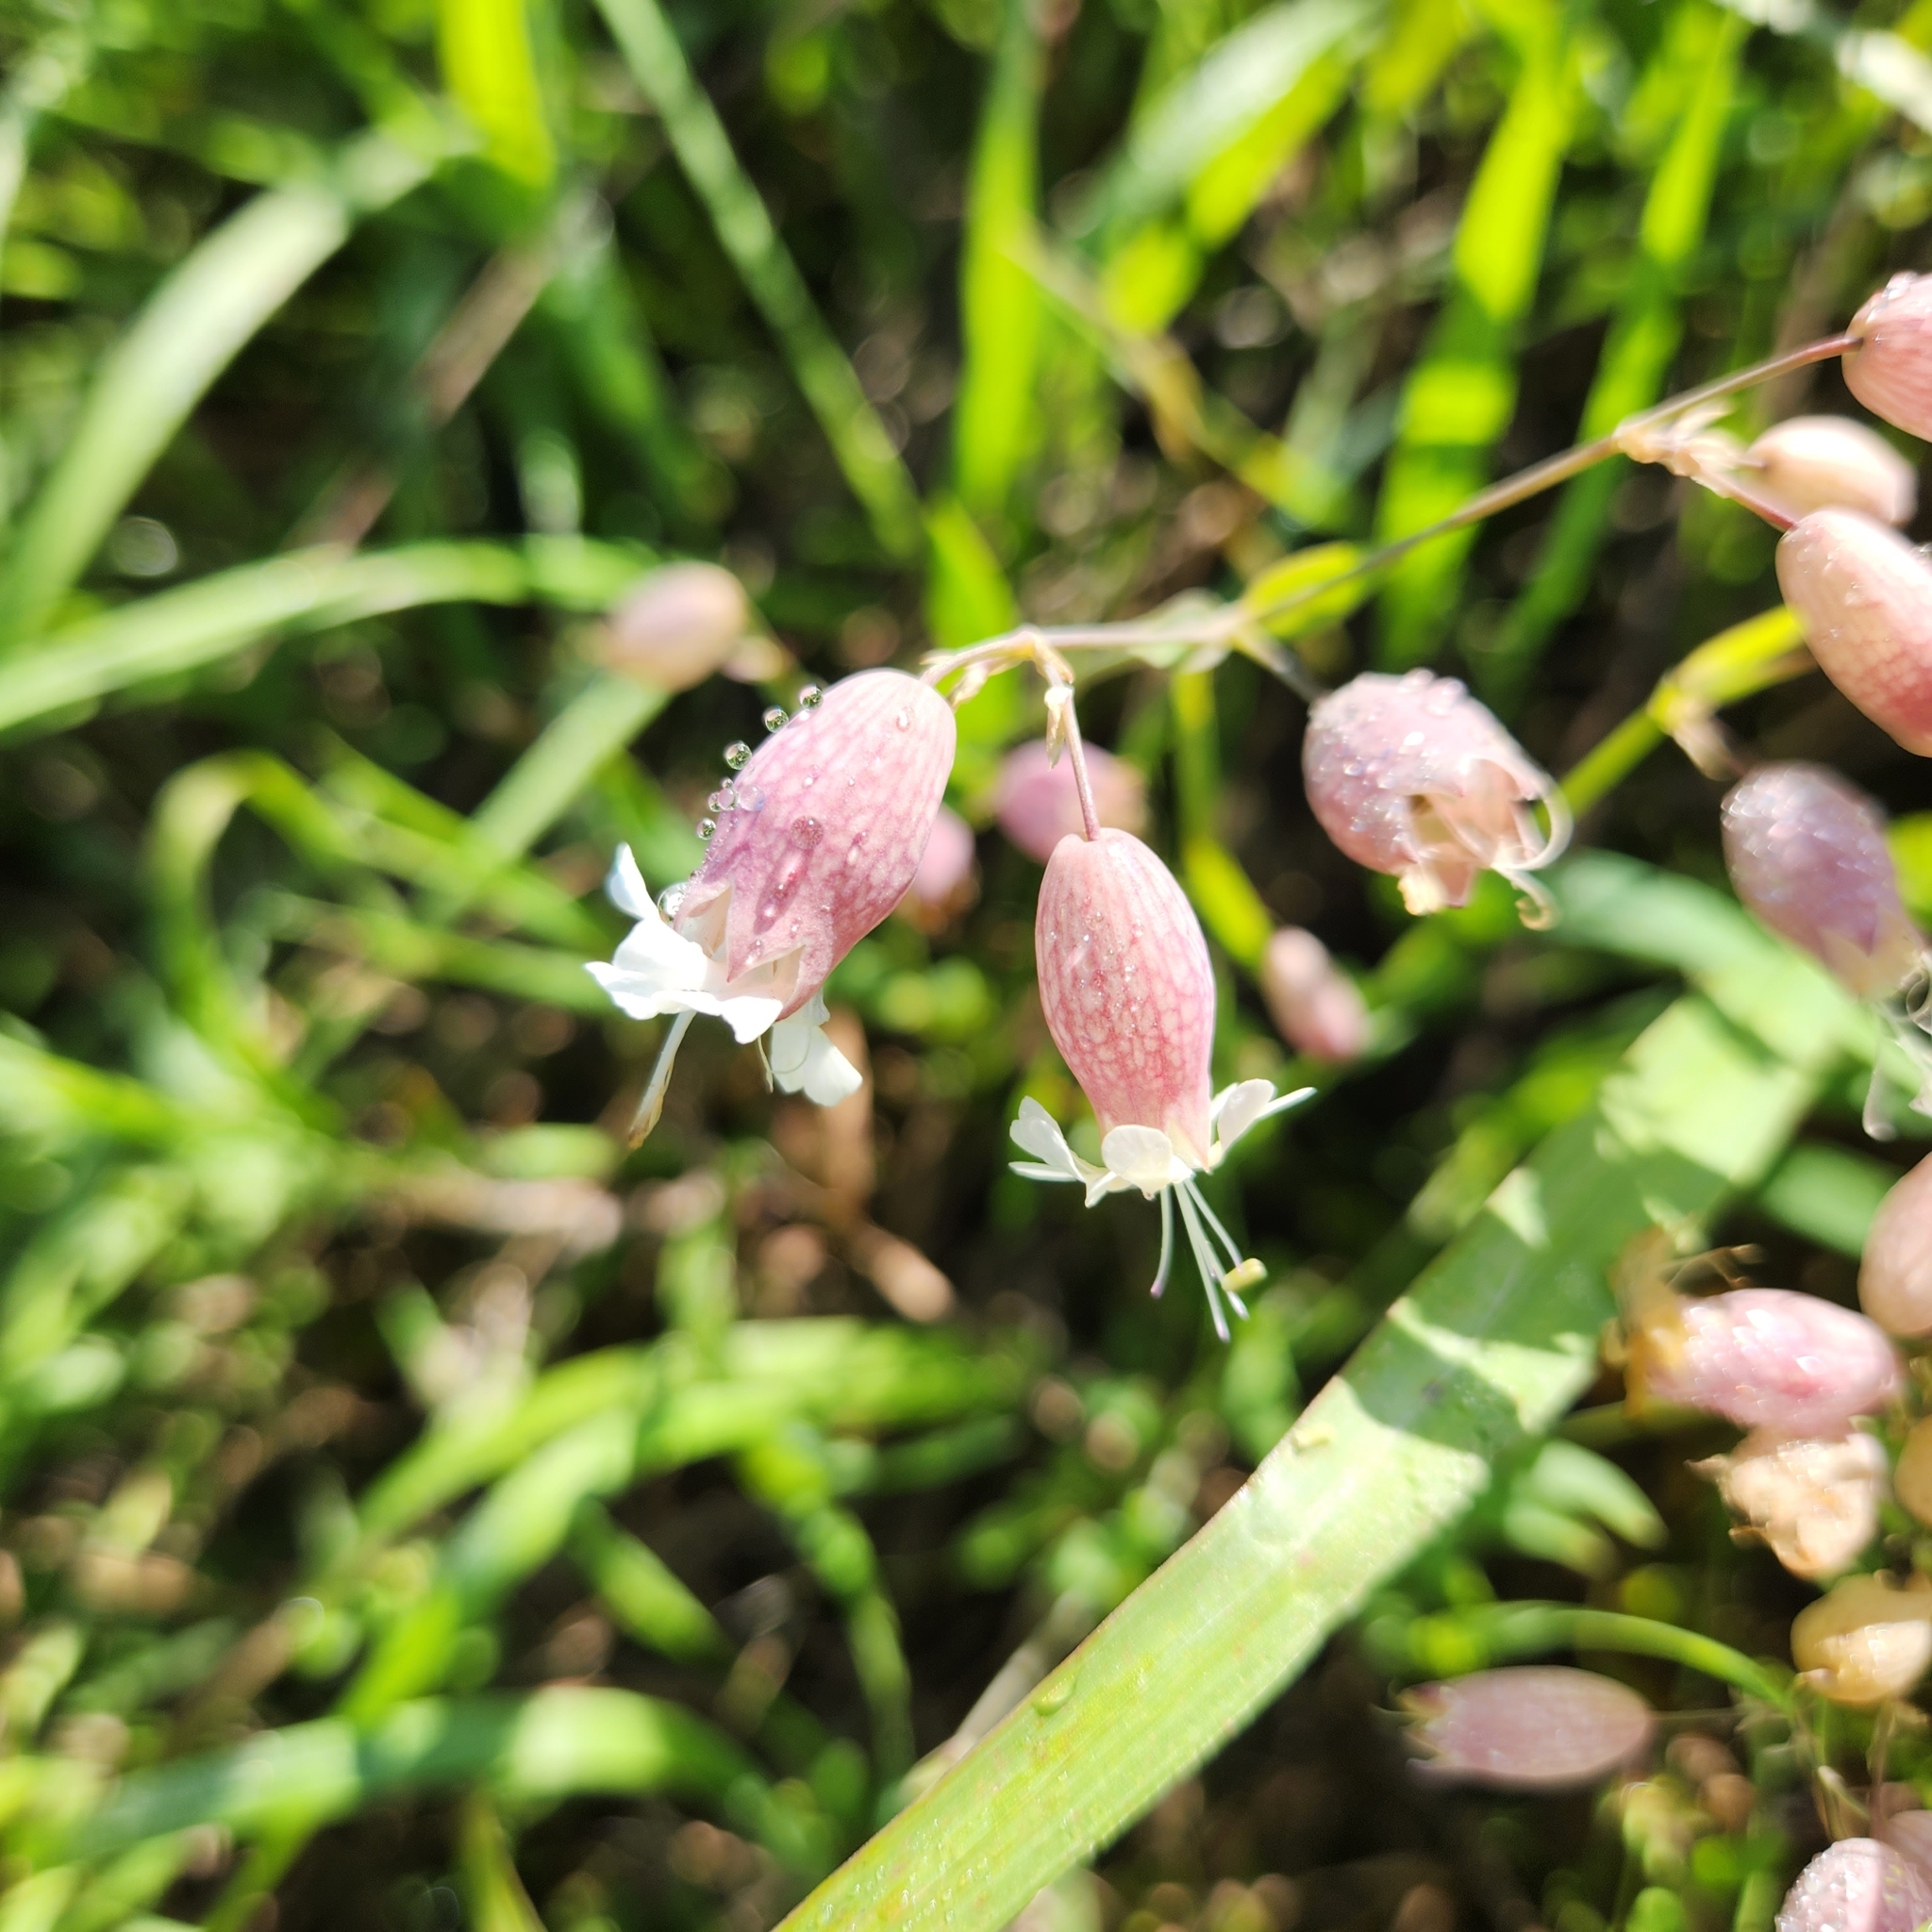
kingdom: Plantae
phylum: Tracheophyta
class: Magnoliopsida
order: Caryophyllales
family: Caryophyllaceae
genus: Silene
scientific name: Silene vulgaris
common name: Bladder campion
